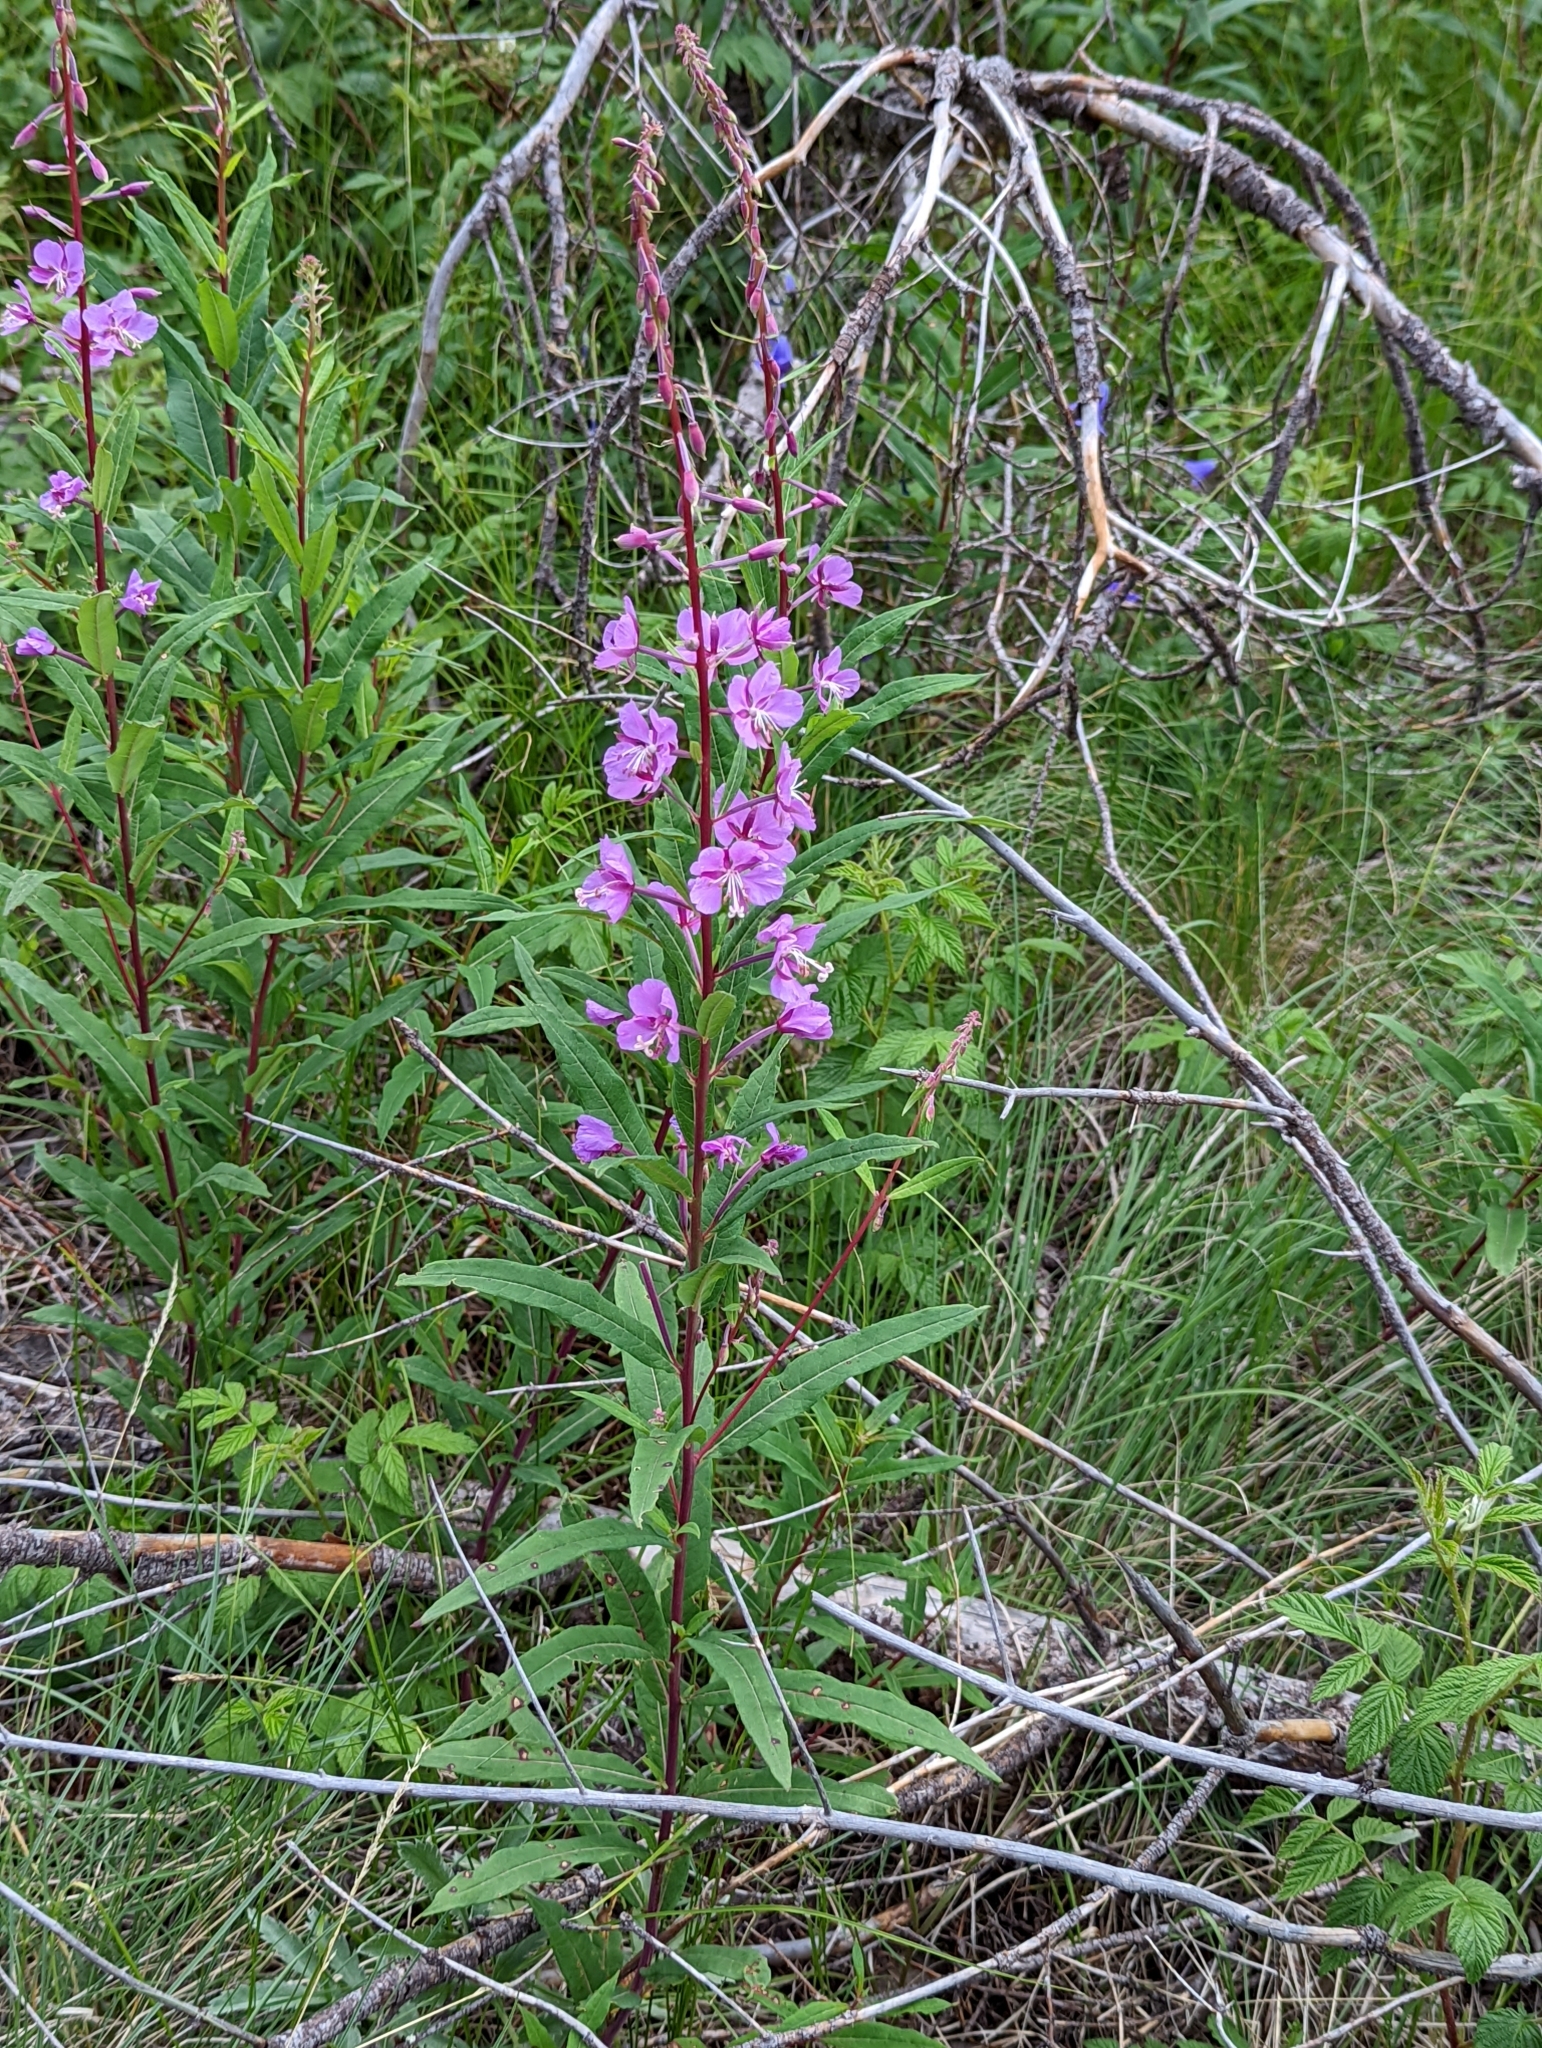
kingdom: Plantae
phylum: Tracheophyta
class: Magnoliopsida
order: Myrtales
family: Onagraceae
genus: Chamaenerion
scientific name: Chamaenerion angustifolium
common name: Fireweed
